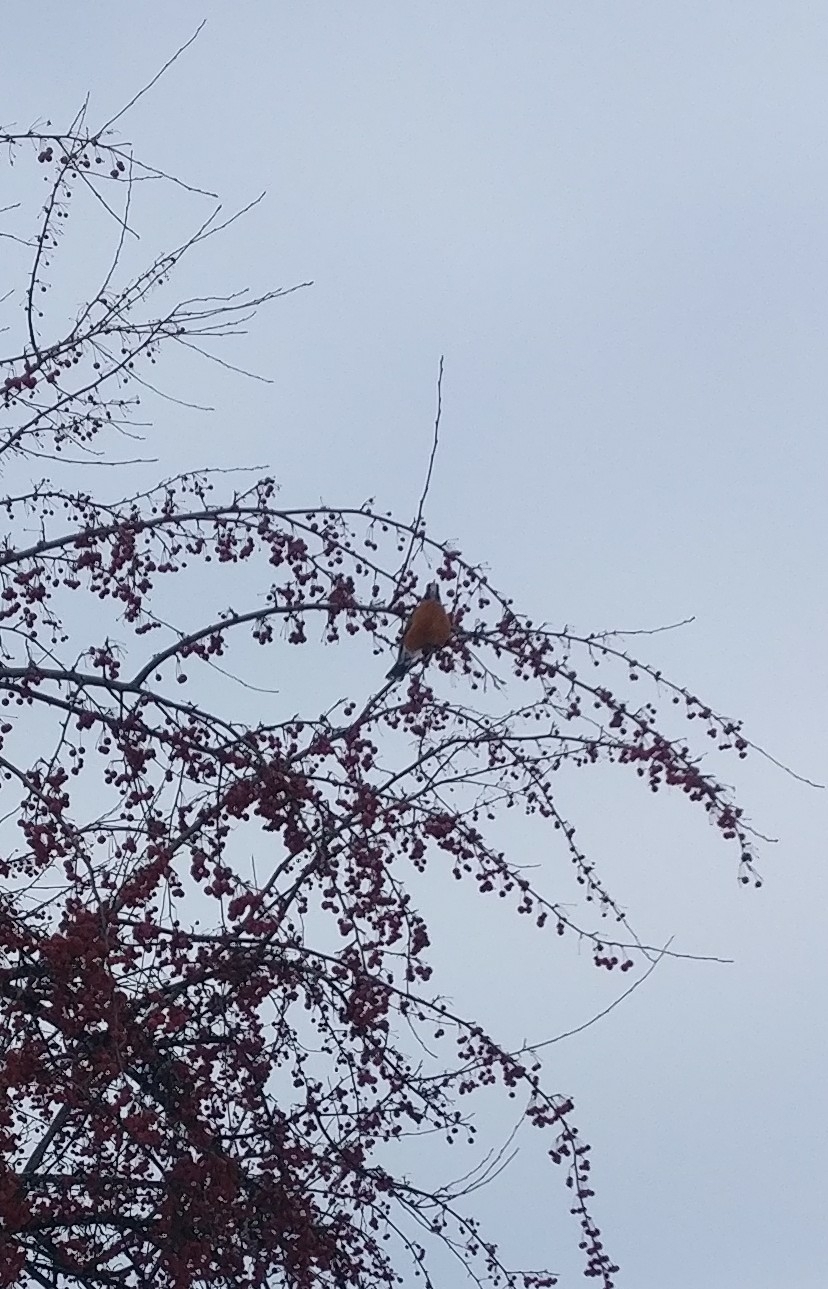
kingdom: Animalia
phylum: Chordata
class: Aves
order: Passeriformes
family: Turdidae
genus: Turdus
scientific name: Turdus migratorius
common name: American robin
